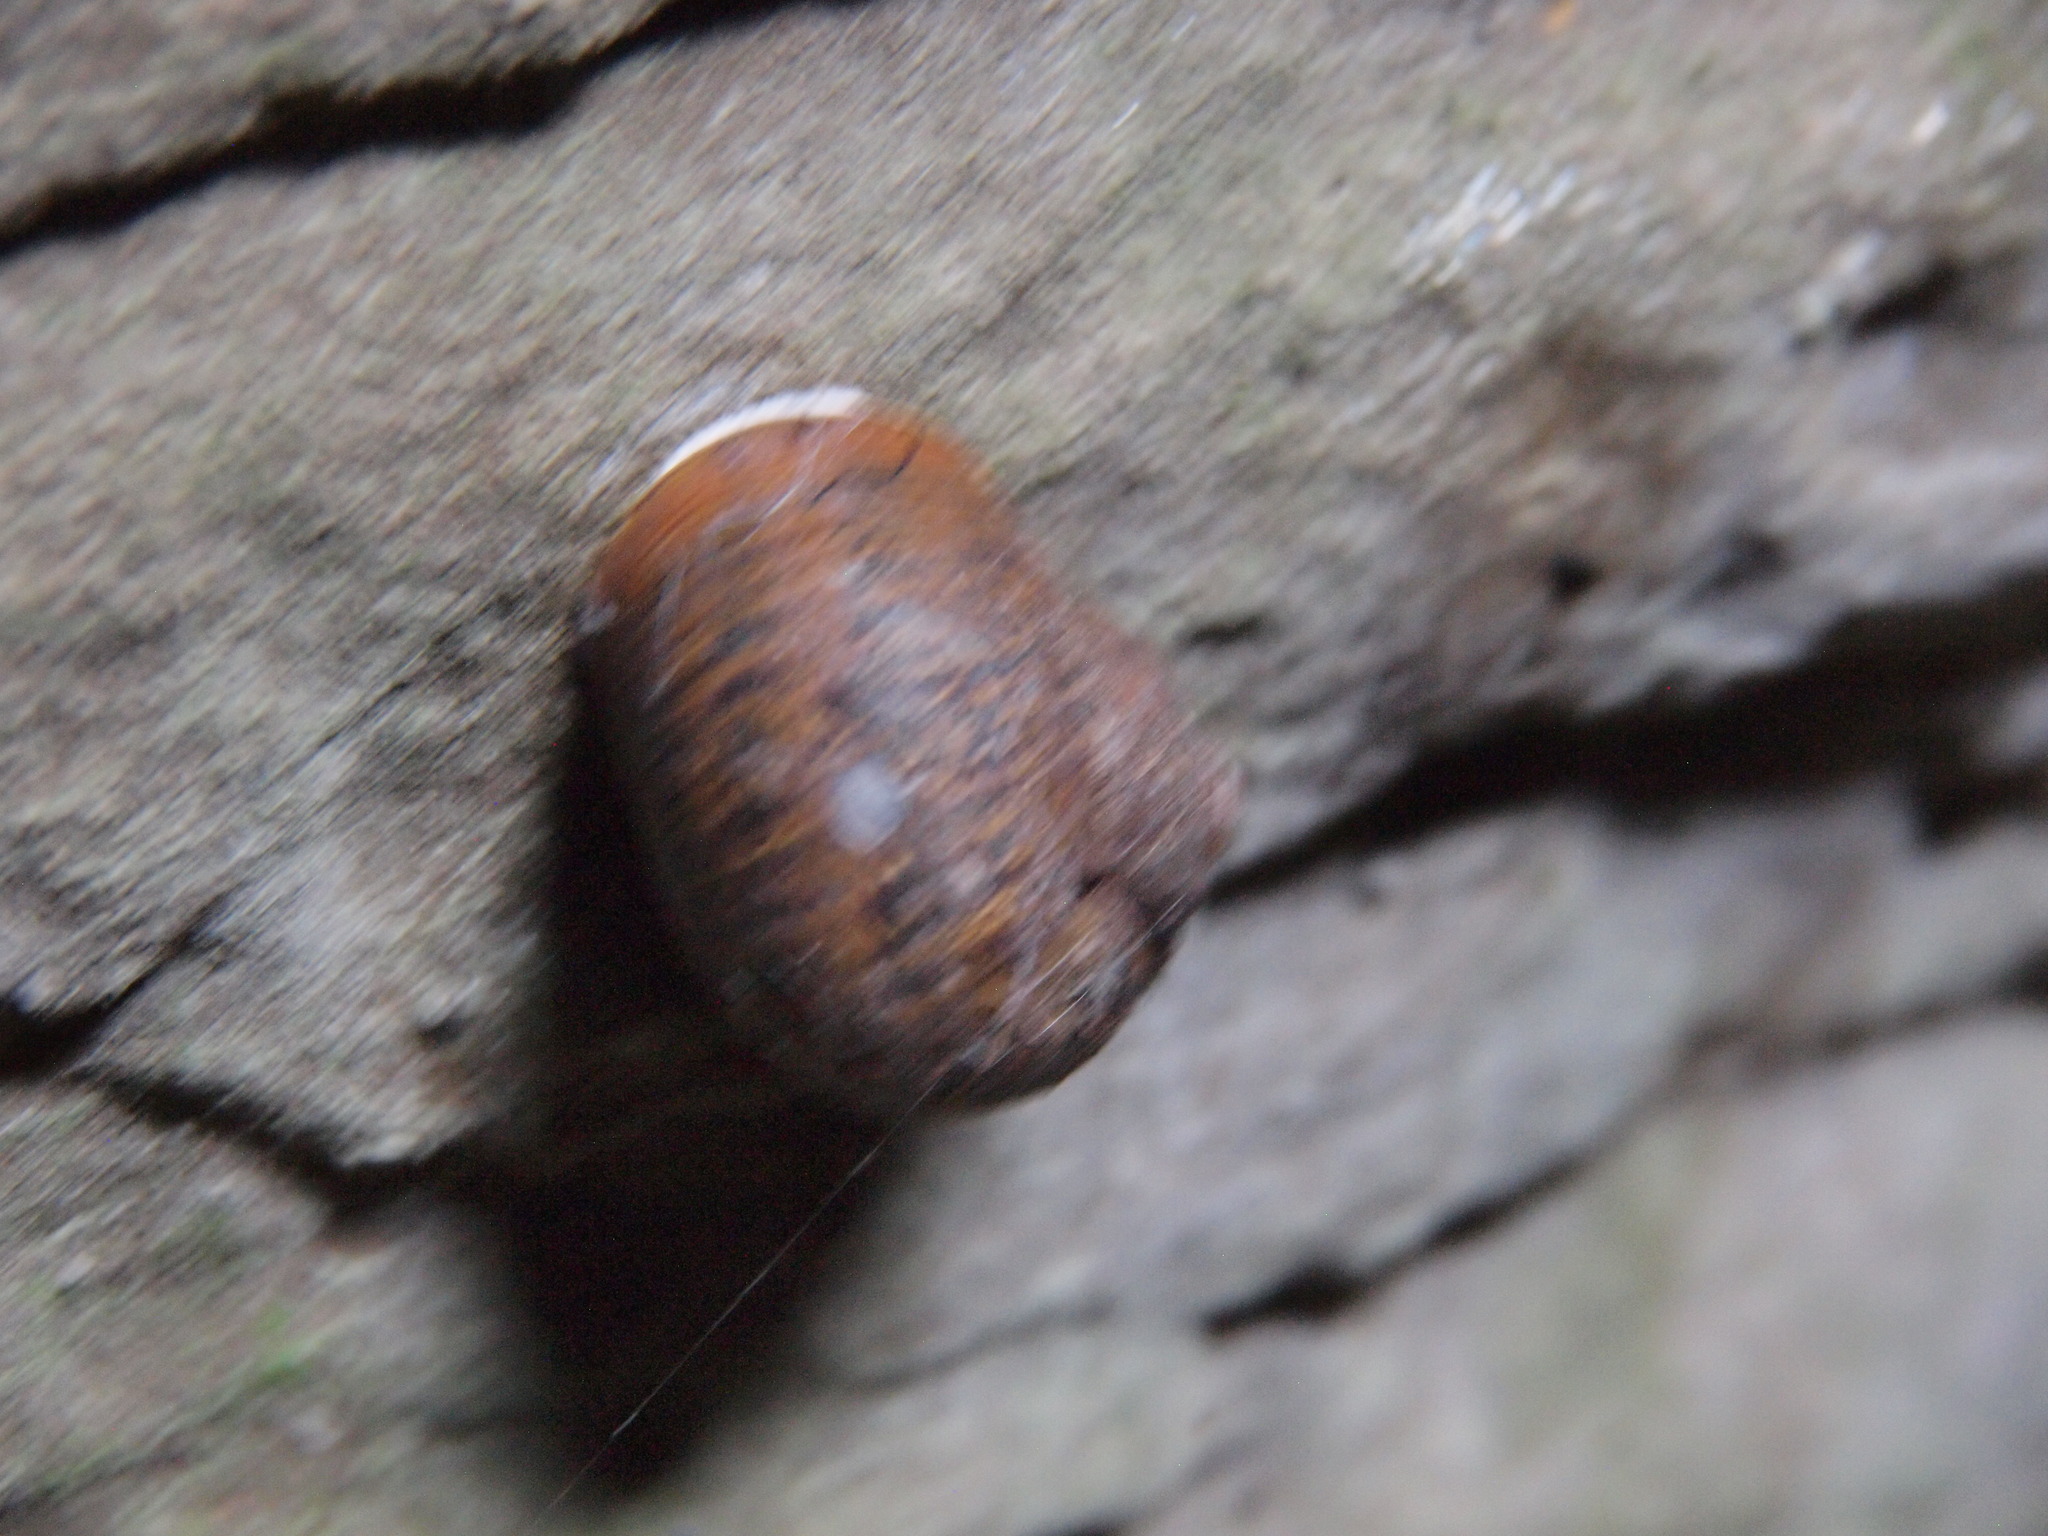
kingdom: Animalia
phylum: Mollusca
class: Gastropoda
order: Stylommatophora
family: Helicidae
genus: Cornu
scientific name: Cornu aspersum
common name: Brown garden snail
